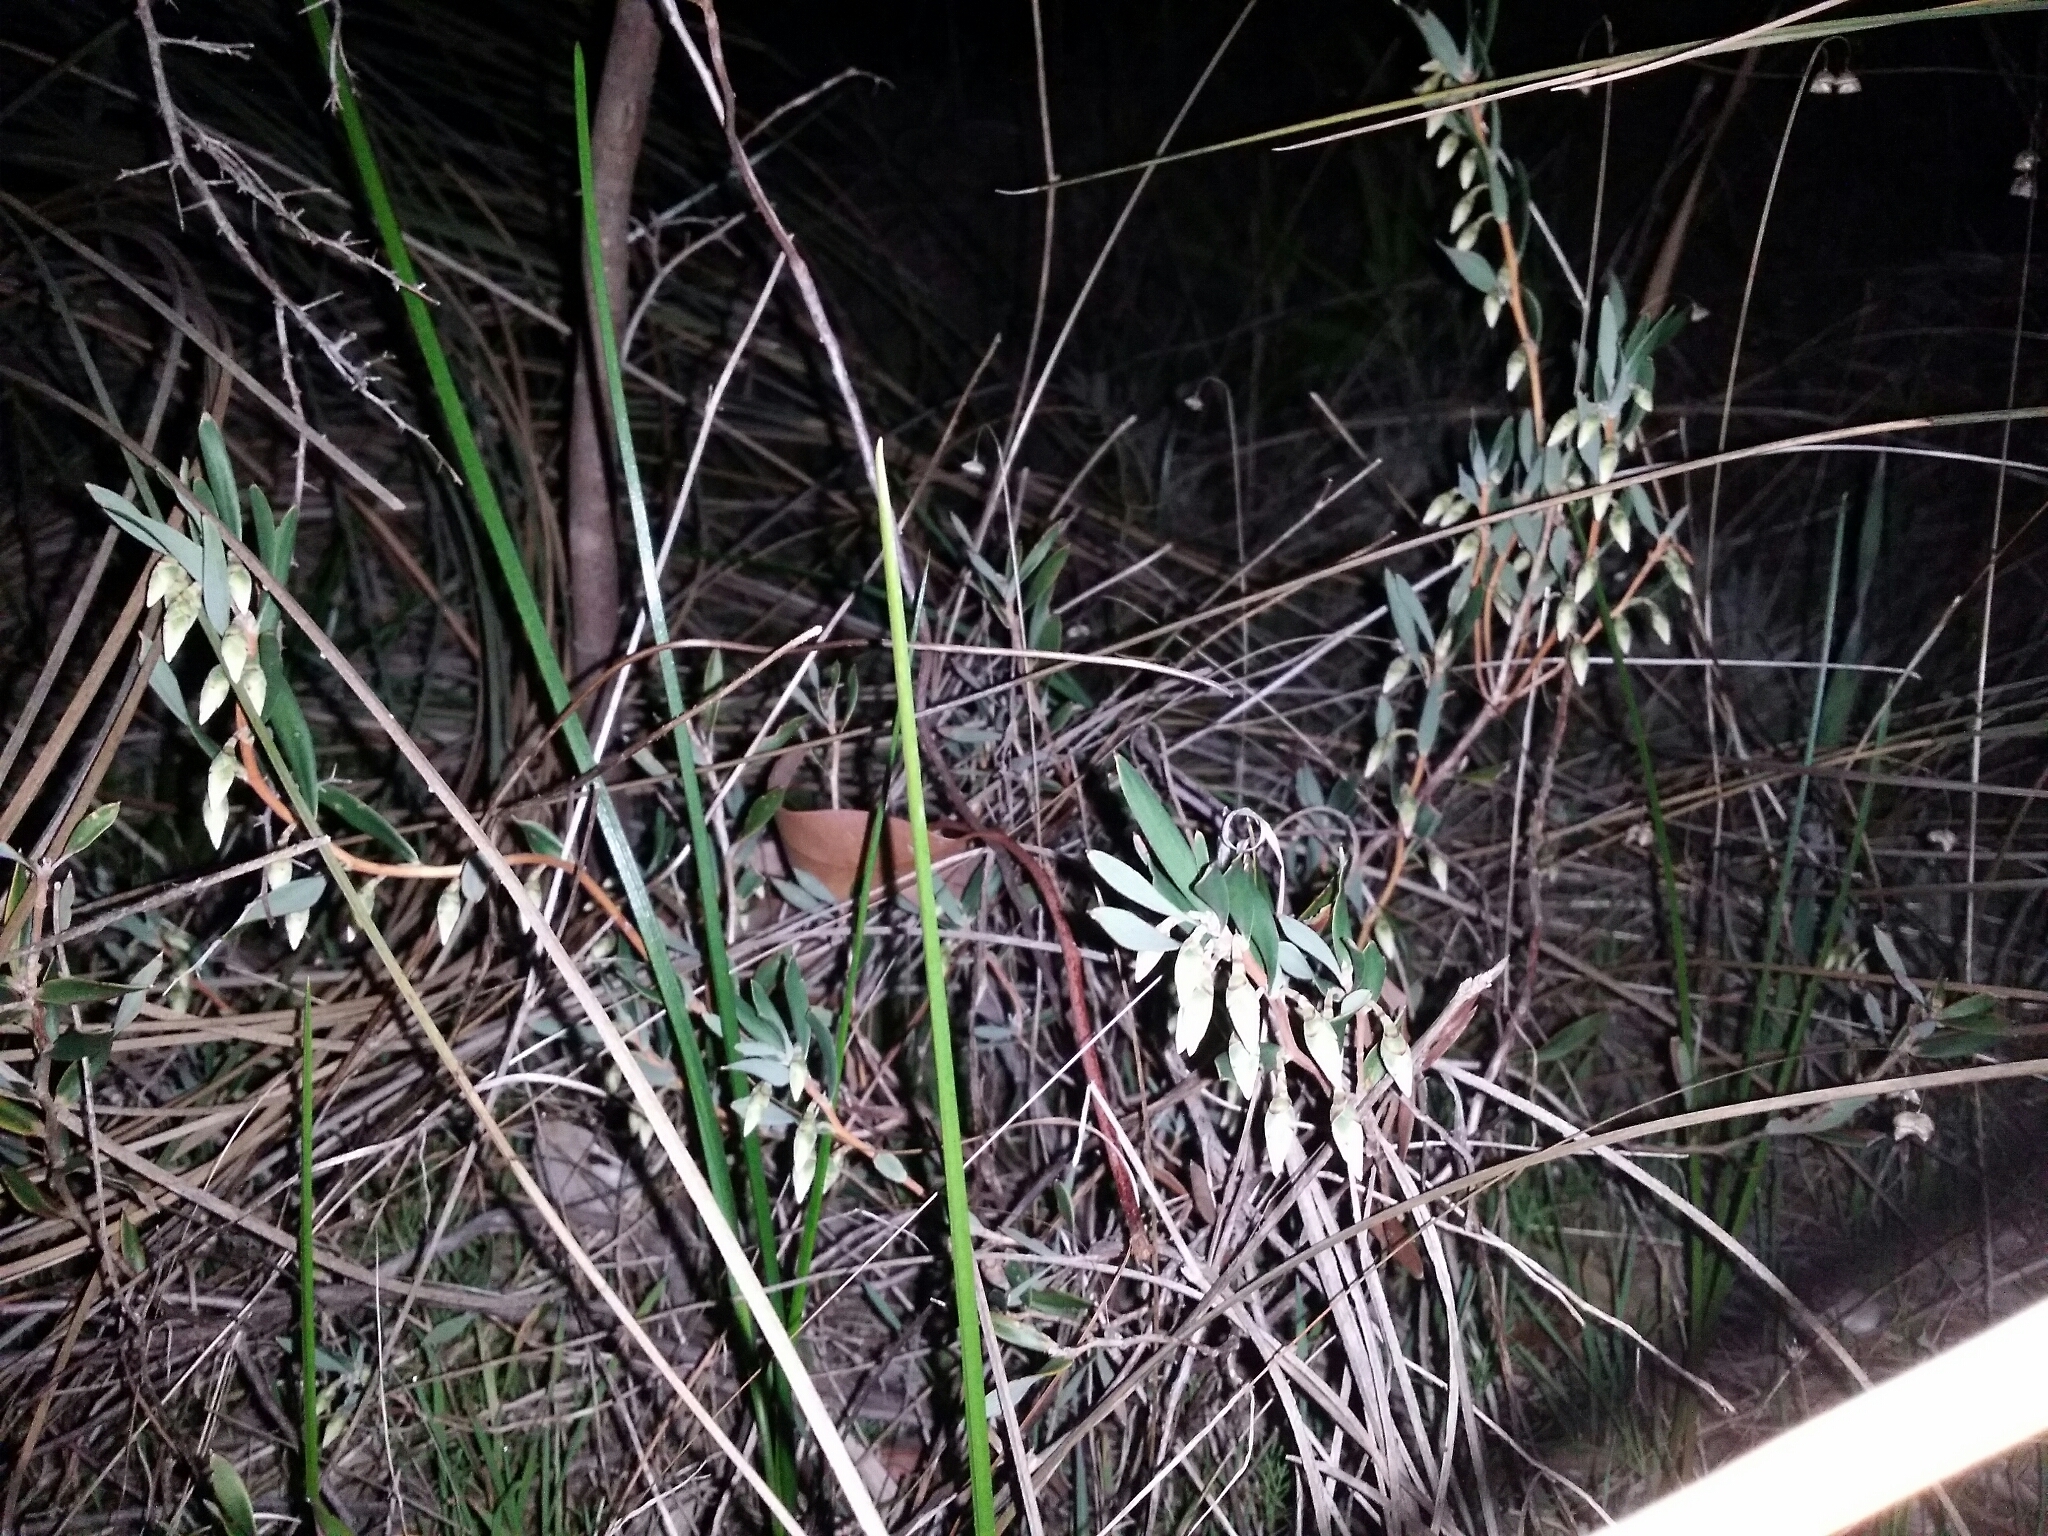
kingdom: Plantae
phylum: Tracheophyta
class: Magnoliopsida
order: Ericales
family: Ericaceae
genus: Conostephium
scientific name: Conostephium pendulum
